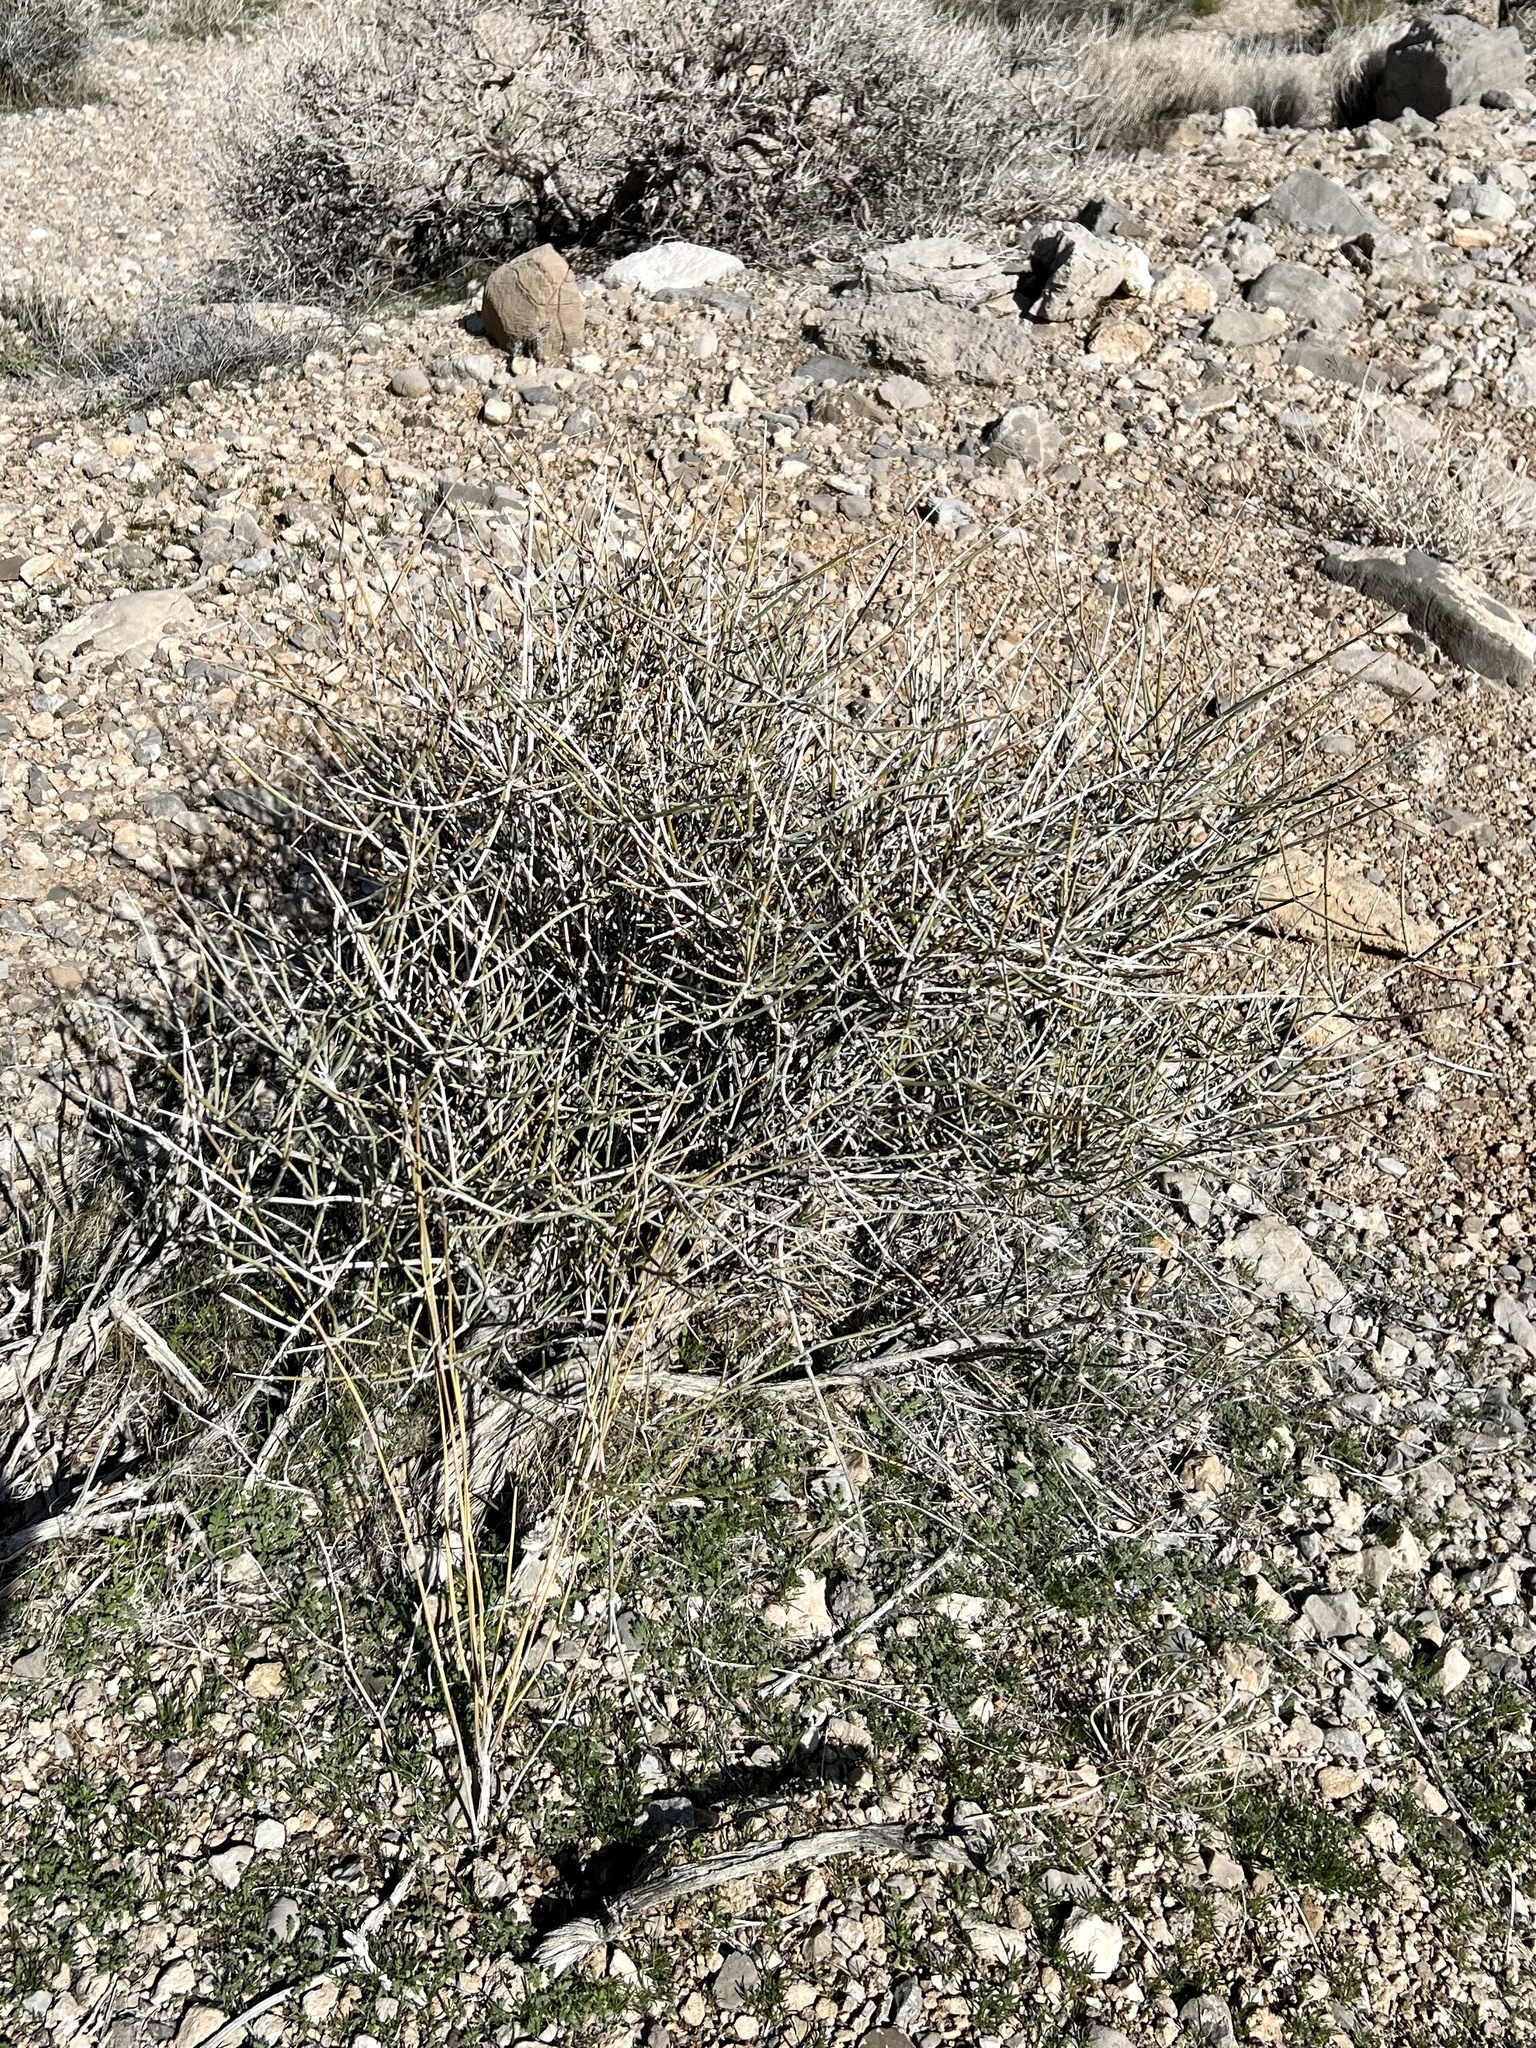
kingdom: Plantae
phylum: Tracheophyta
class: Gnetopsida
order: Ephedrales
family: Ephedraceae
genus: Ephedra
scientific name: Ephedra nevadensis
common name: Gray ephedra
